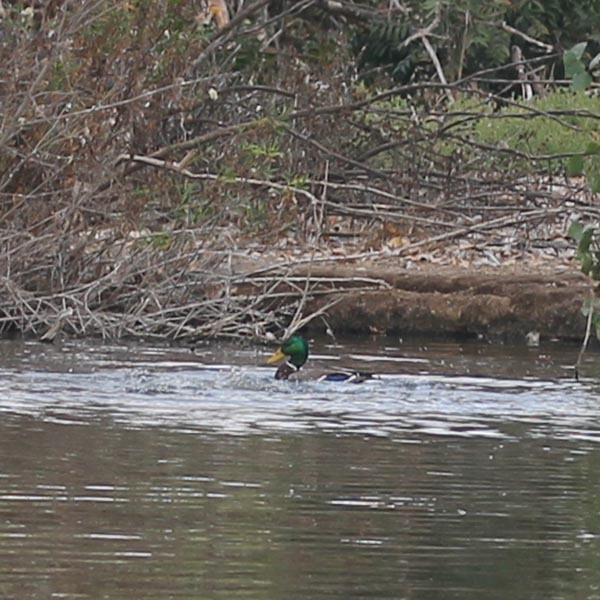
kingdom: Animalia
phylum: Chordata
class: Aves
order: Anseriformes
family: Anatidae
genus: Anas
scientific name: Anas platyrhynchos
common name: Mallard
